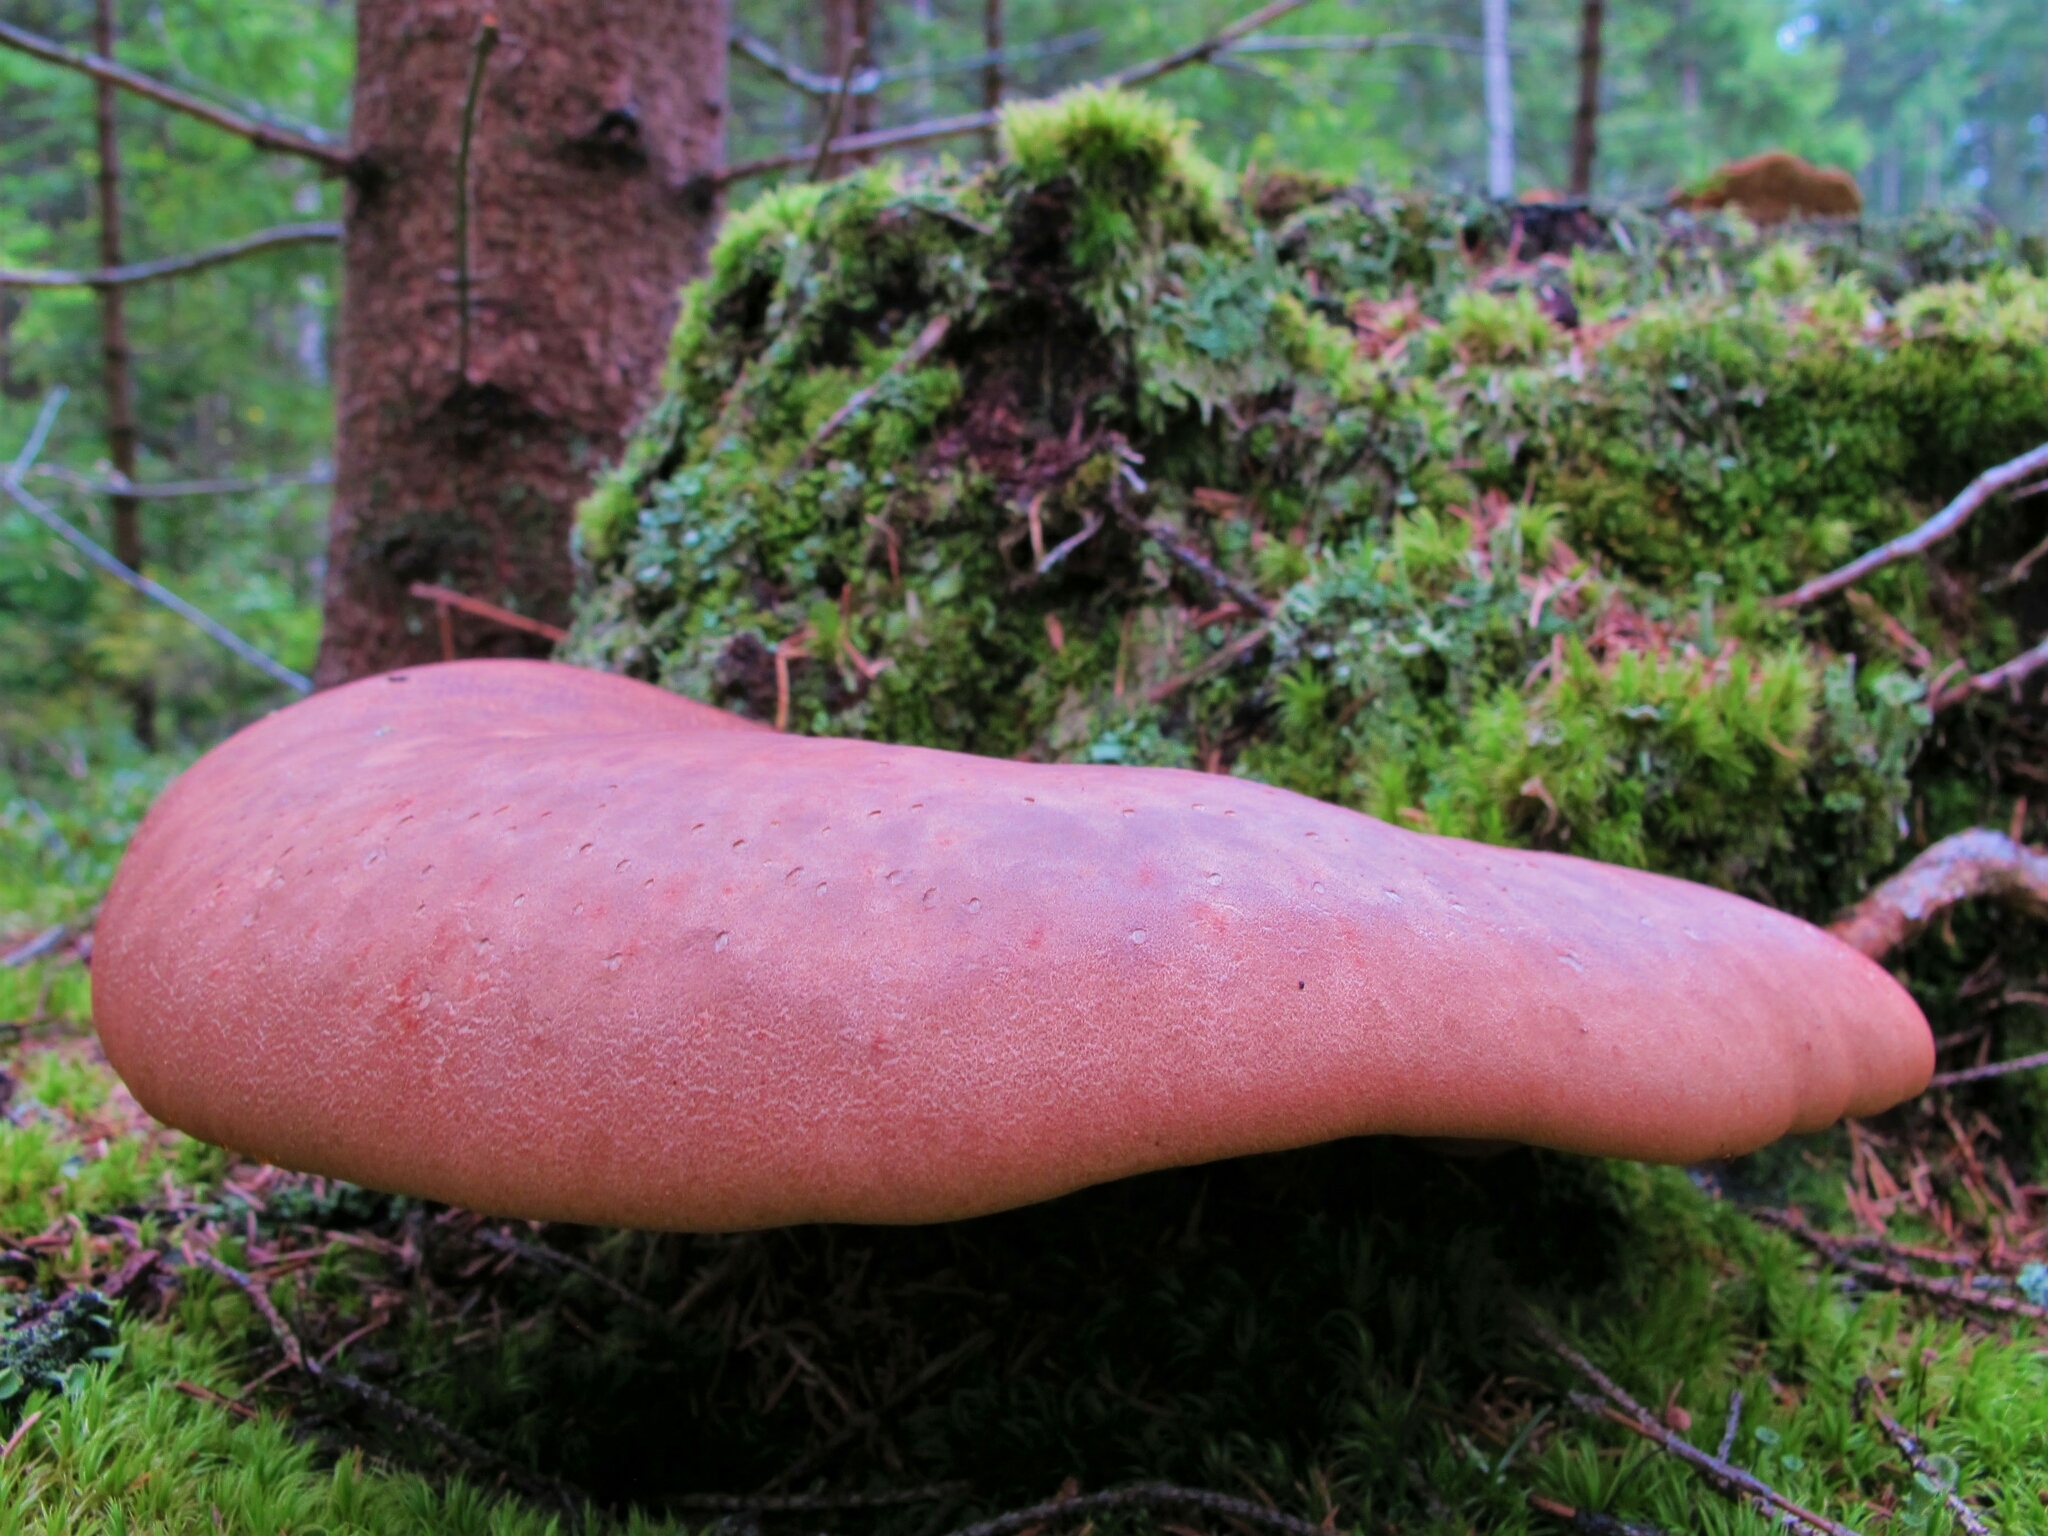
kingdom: Fungi
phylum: Basidiomycota
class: Agaricomycetes
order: Agaricales
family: Fistulinaceae
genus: Fistulina
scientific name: Fistulina hepatica
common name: Beef-steak fungus
